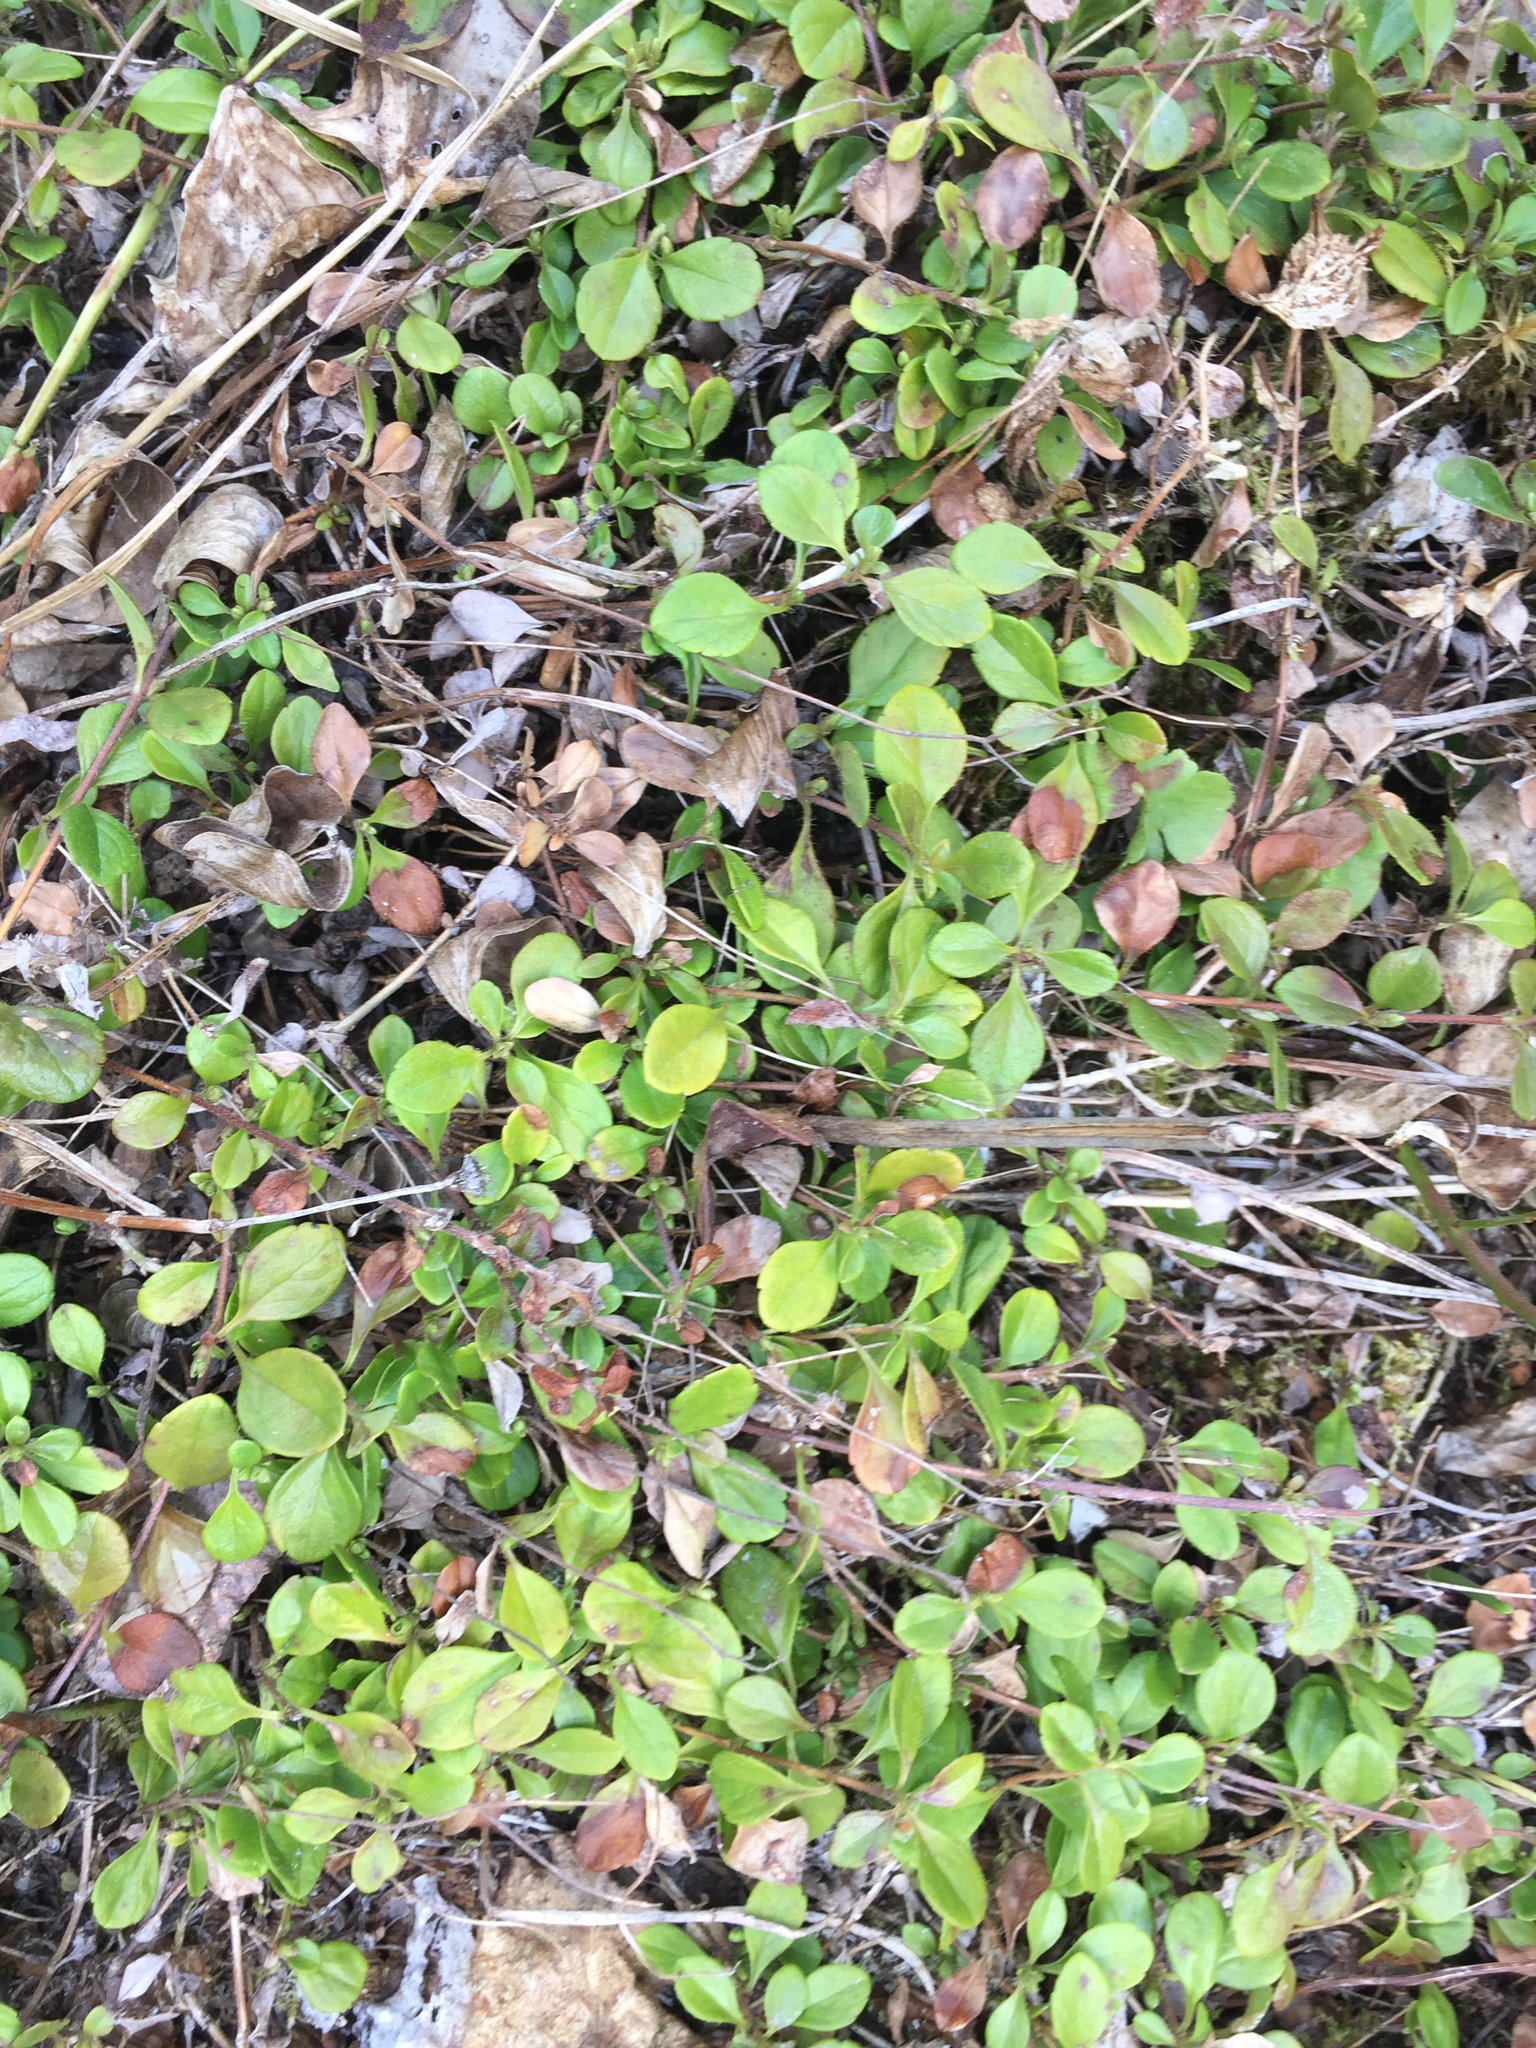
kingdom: Plantae
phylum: Tracheophyta
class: Magnoliopsida
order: Dipsacales
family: Caprifoliaceae
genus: Linnaea
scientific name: Linnaea borealis
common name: Twinflower
